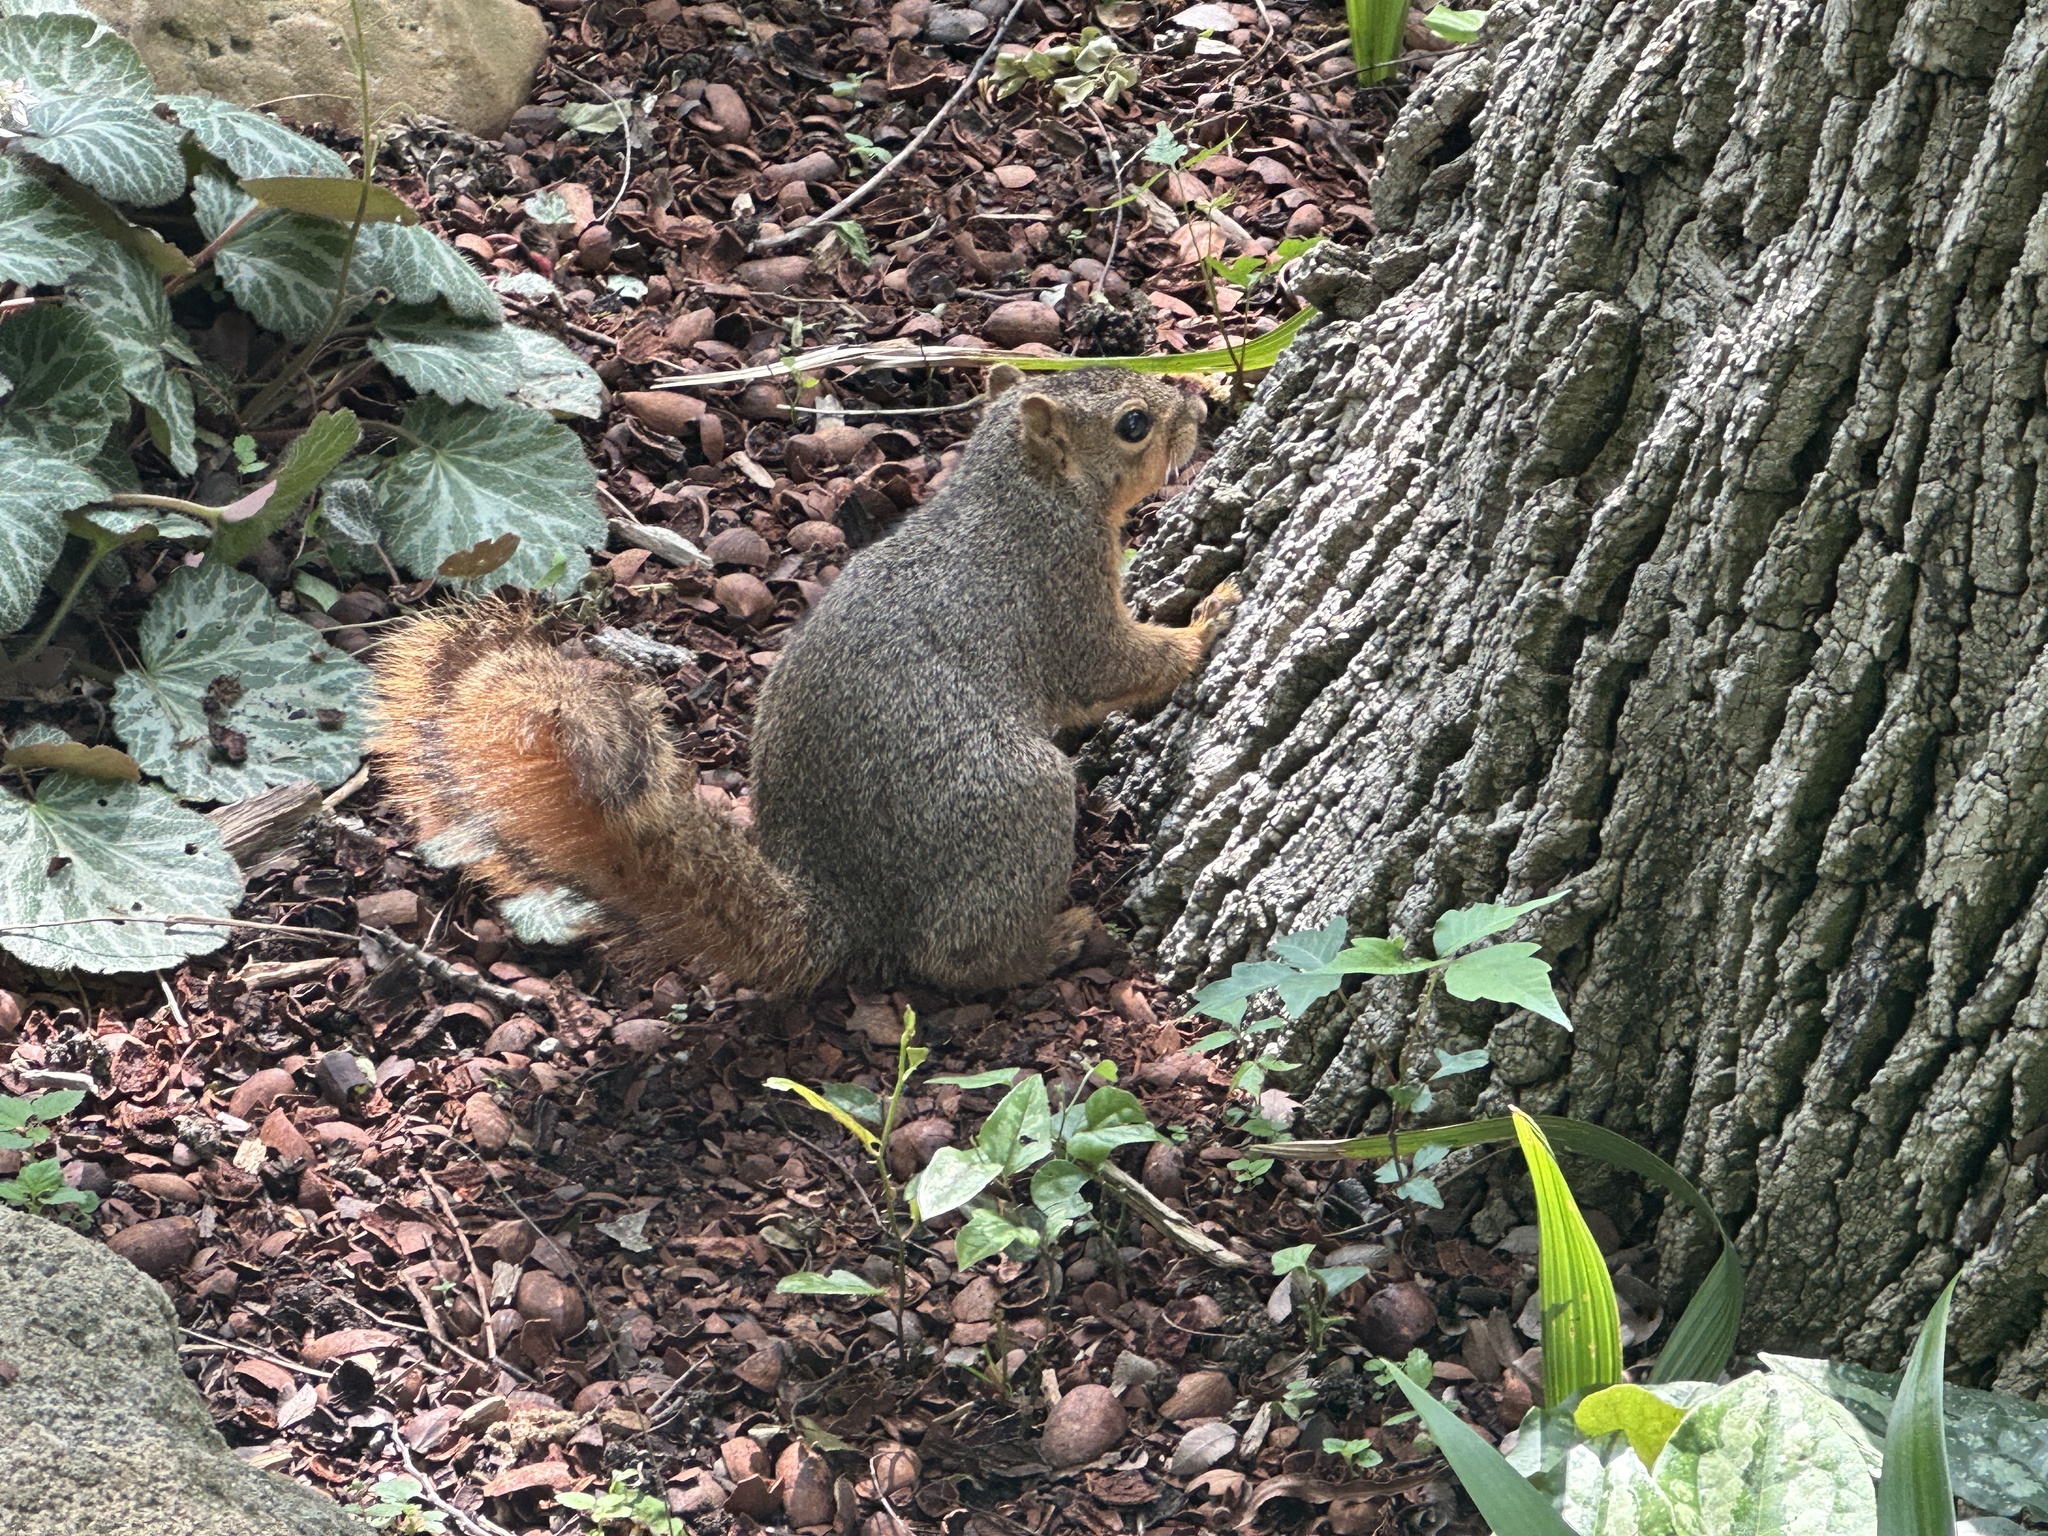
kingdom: Animalia
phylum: Chordata
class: Mammalia
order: Rodentia
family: Sciuridae
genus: Sciurus
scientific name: Sciurus niger
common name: Fox squirrel
